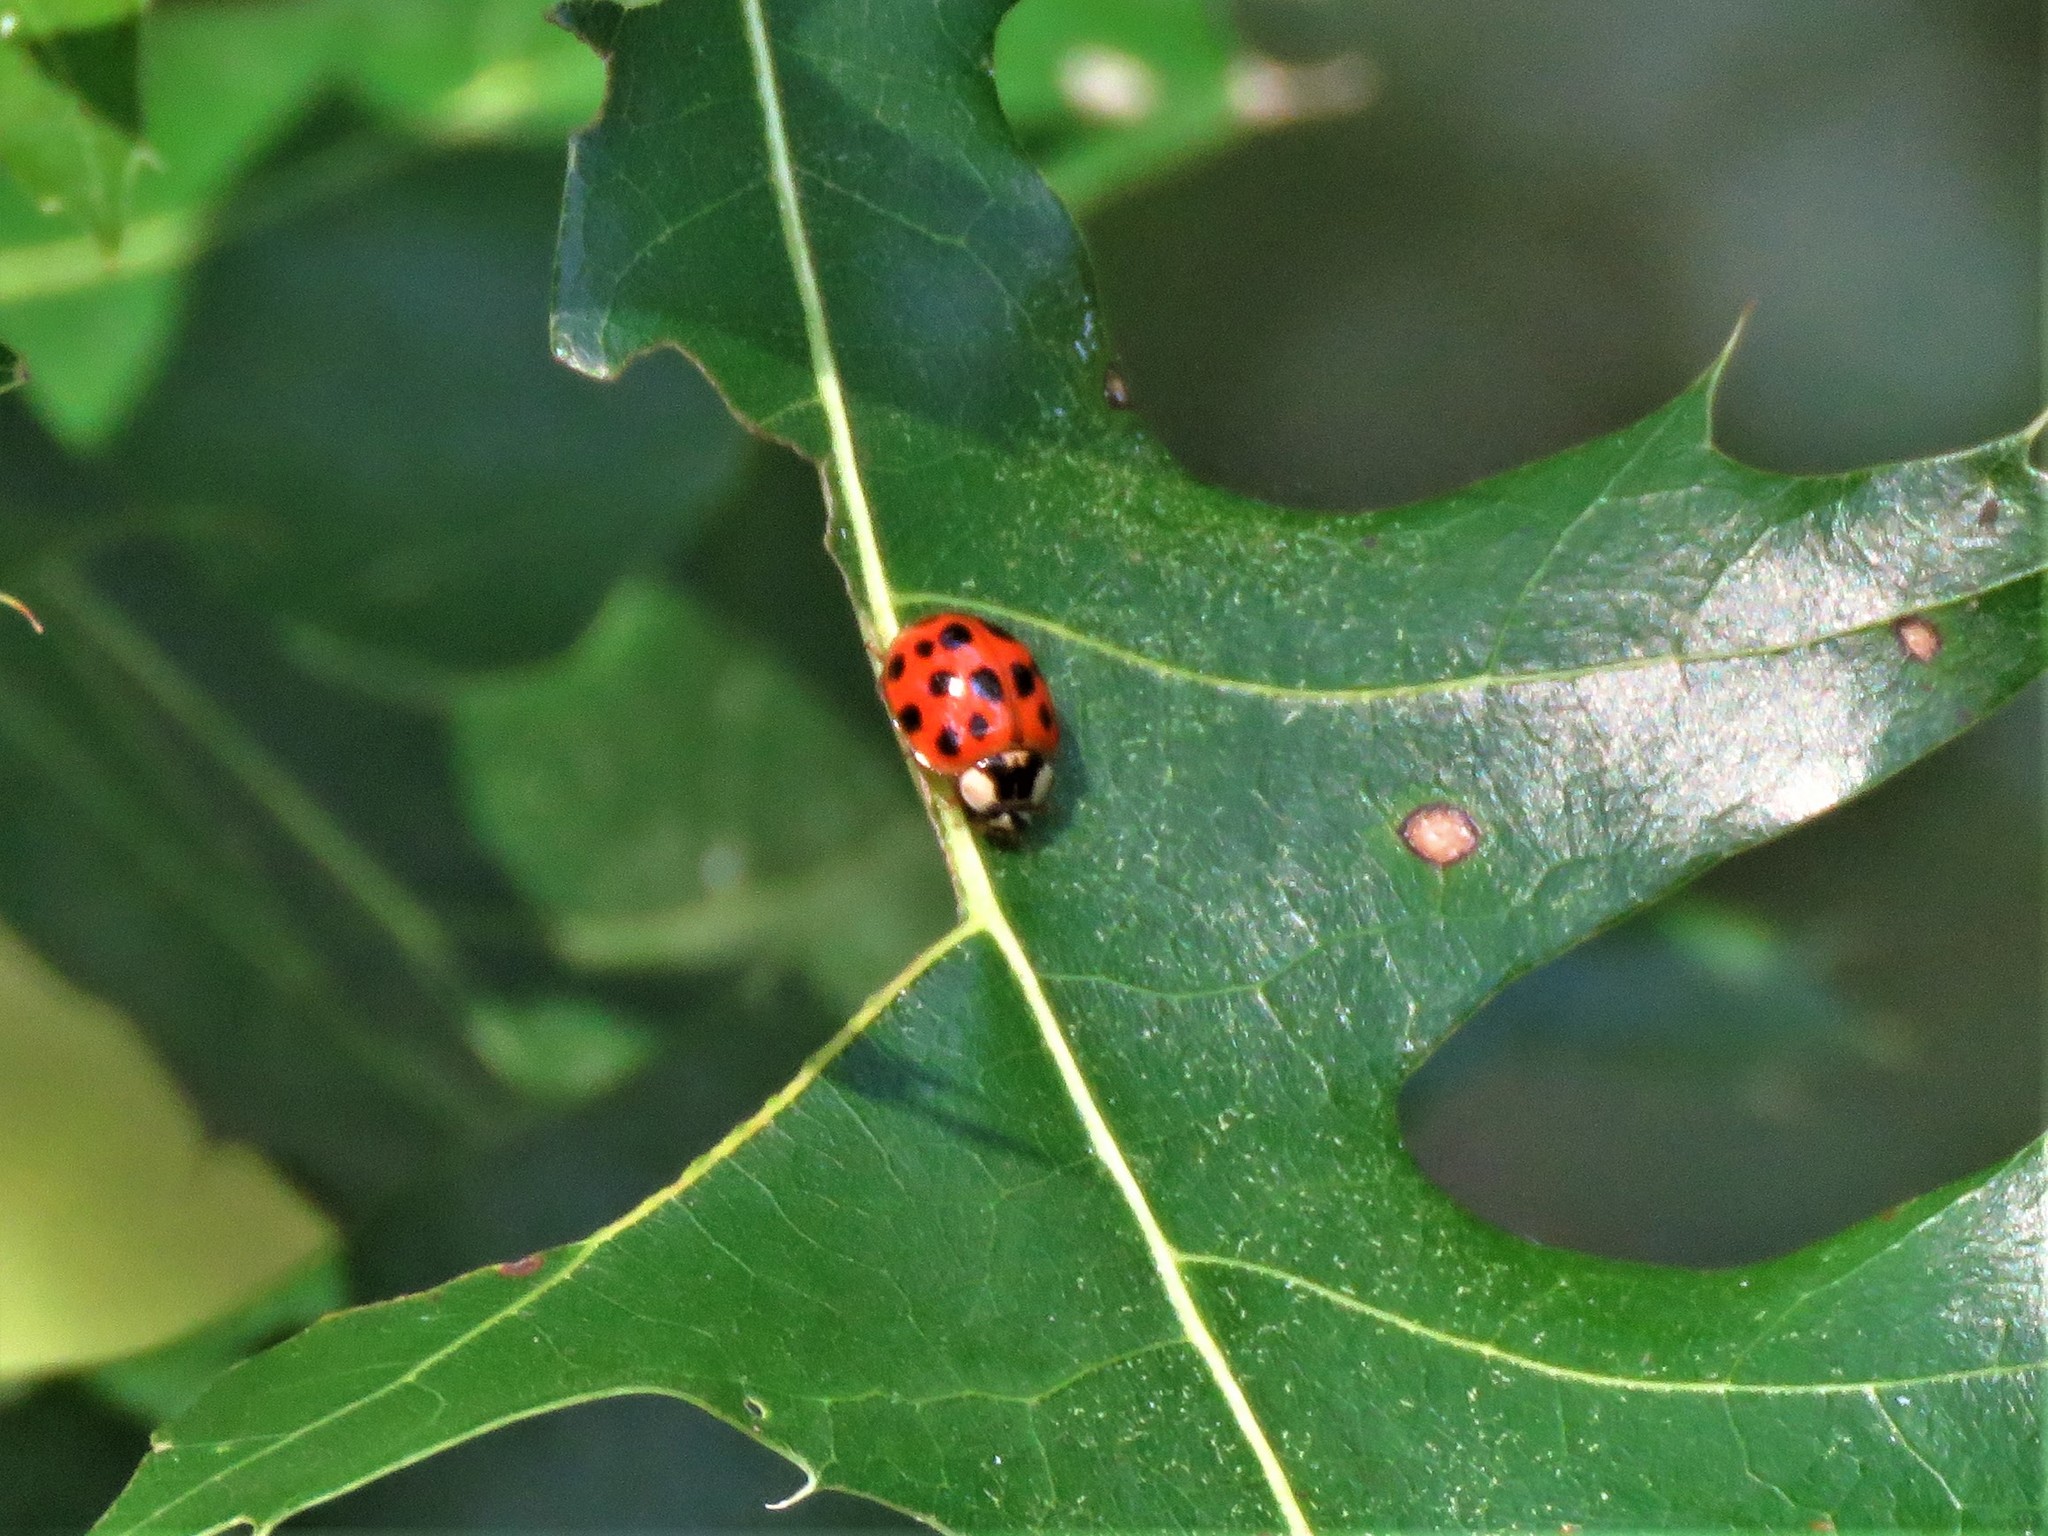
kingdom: Animalia
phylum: Arthropoda
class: Insecta
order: Coleoptera
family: Coccinellidae
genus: Harmonia
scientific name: Harmonia axyridis
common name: Harlequin ladybird
